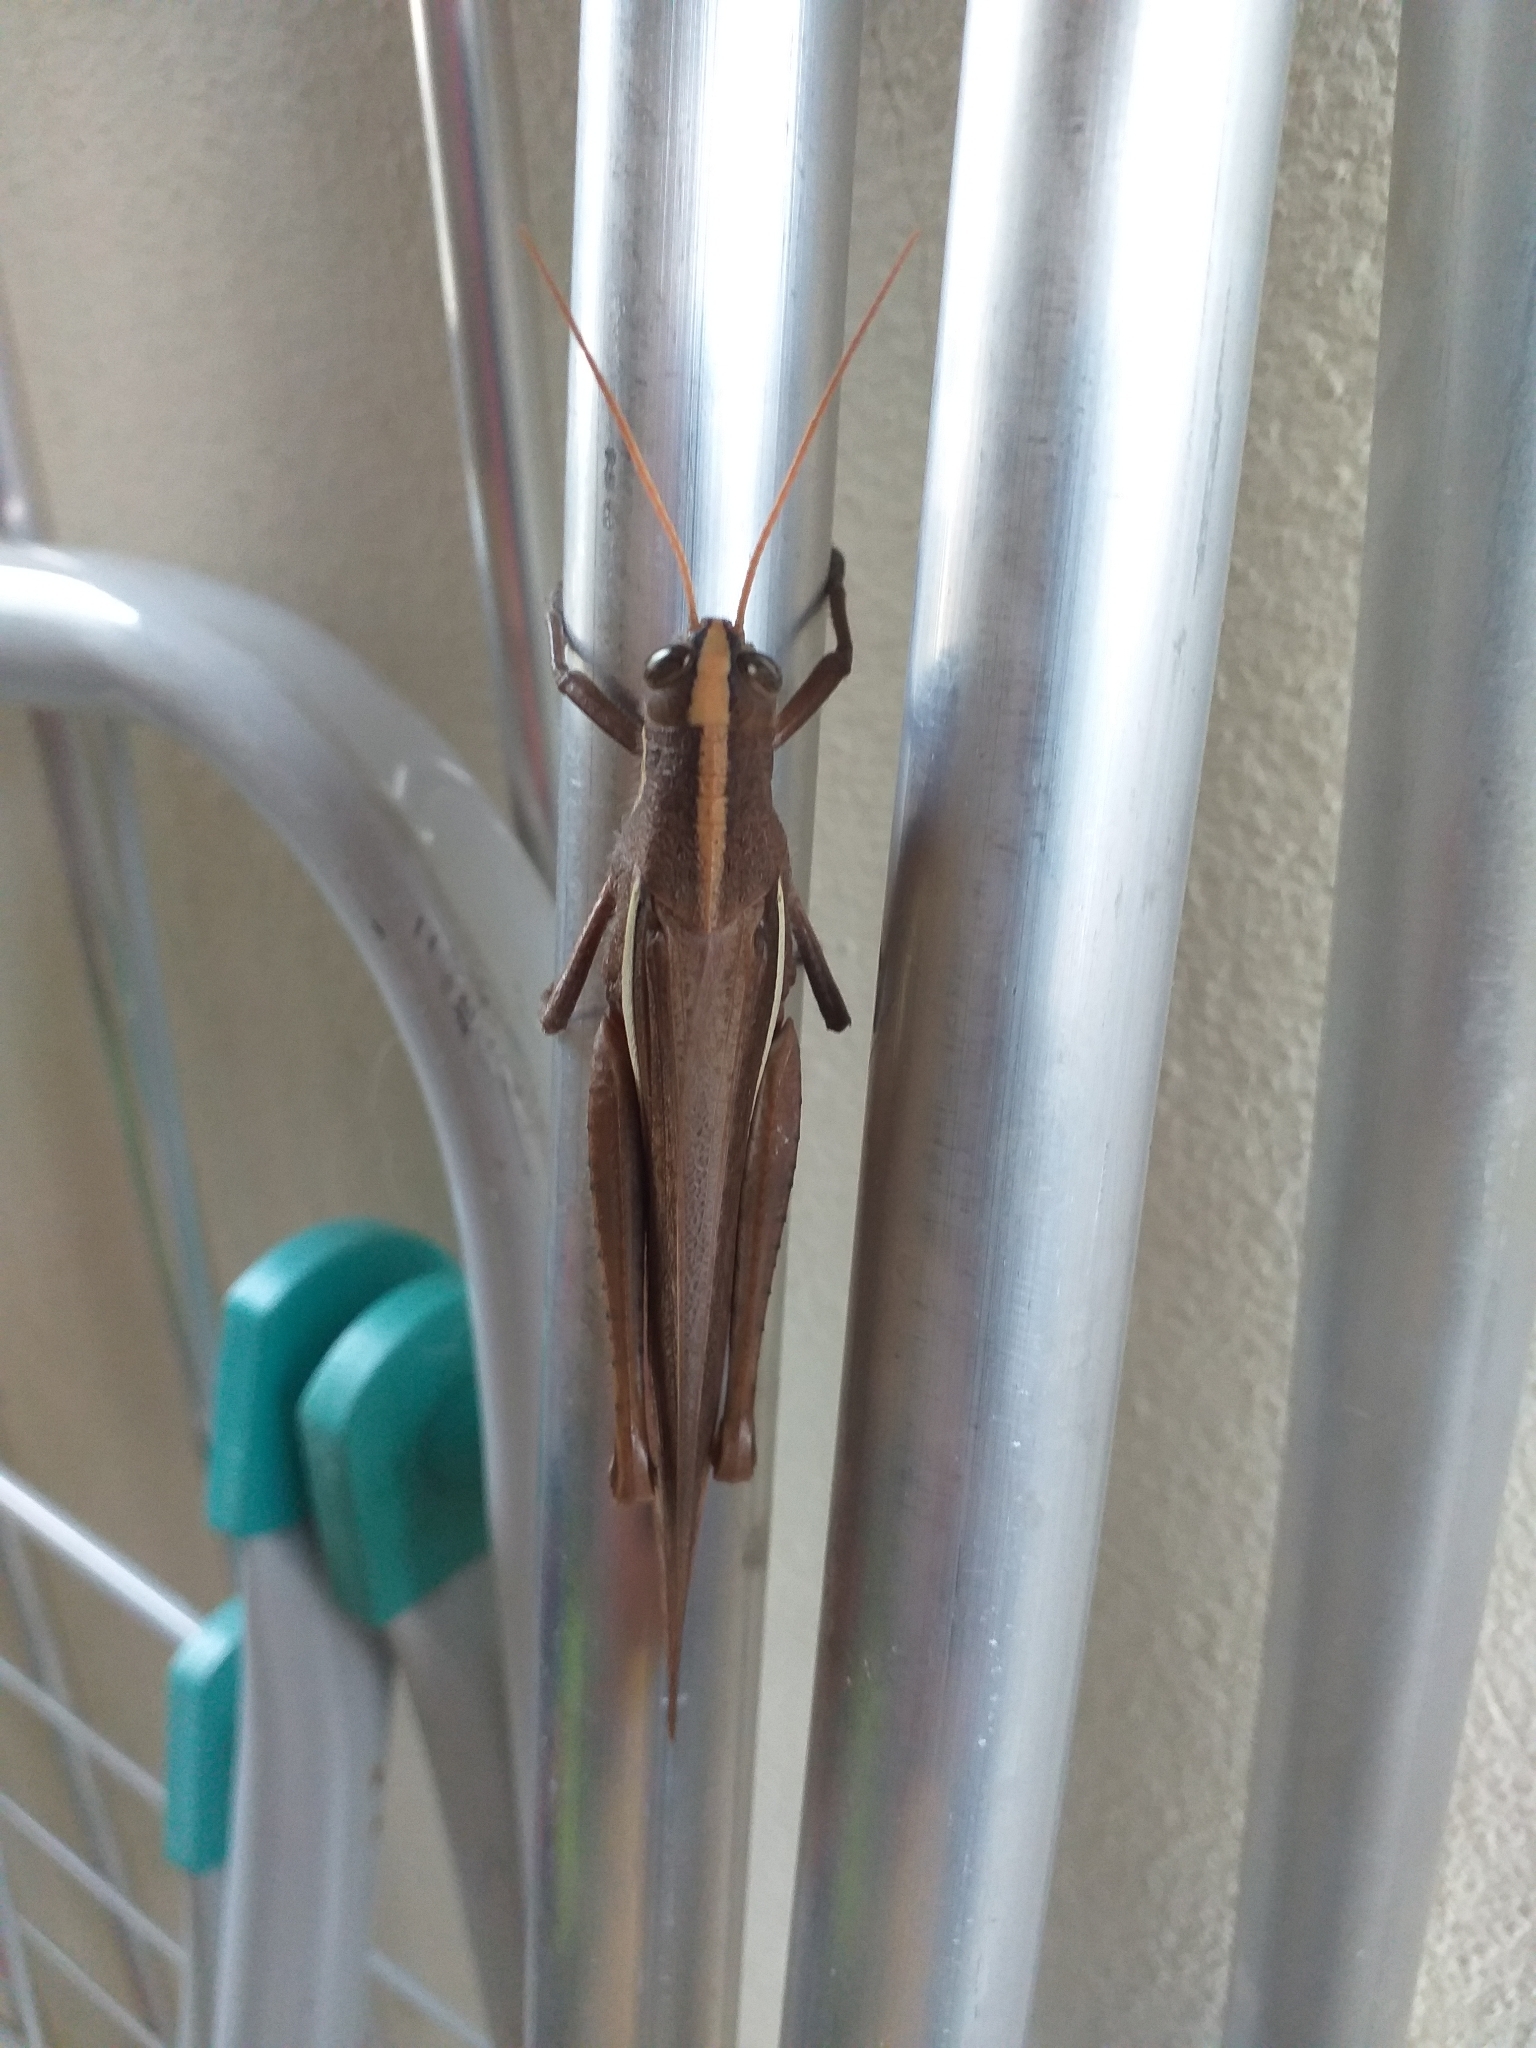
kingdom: Animalia
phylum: Arthropoda
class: Insecta
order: Orthoptera
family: Acrididae
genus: Schistocerca
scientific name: Schistocerca flavofasciata
